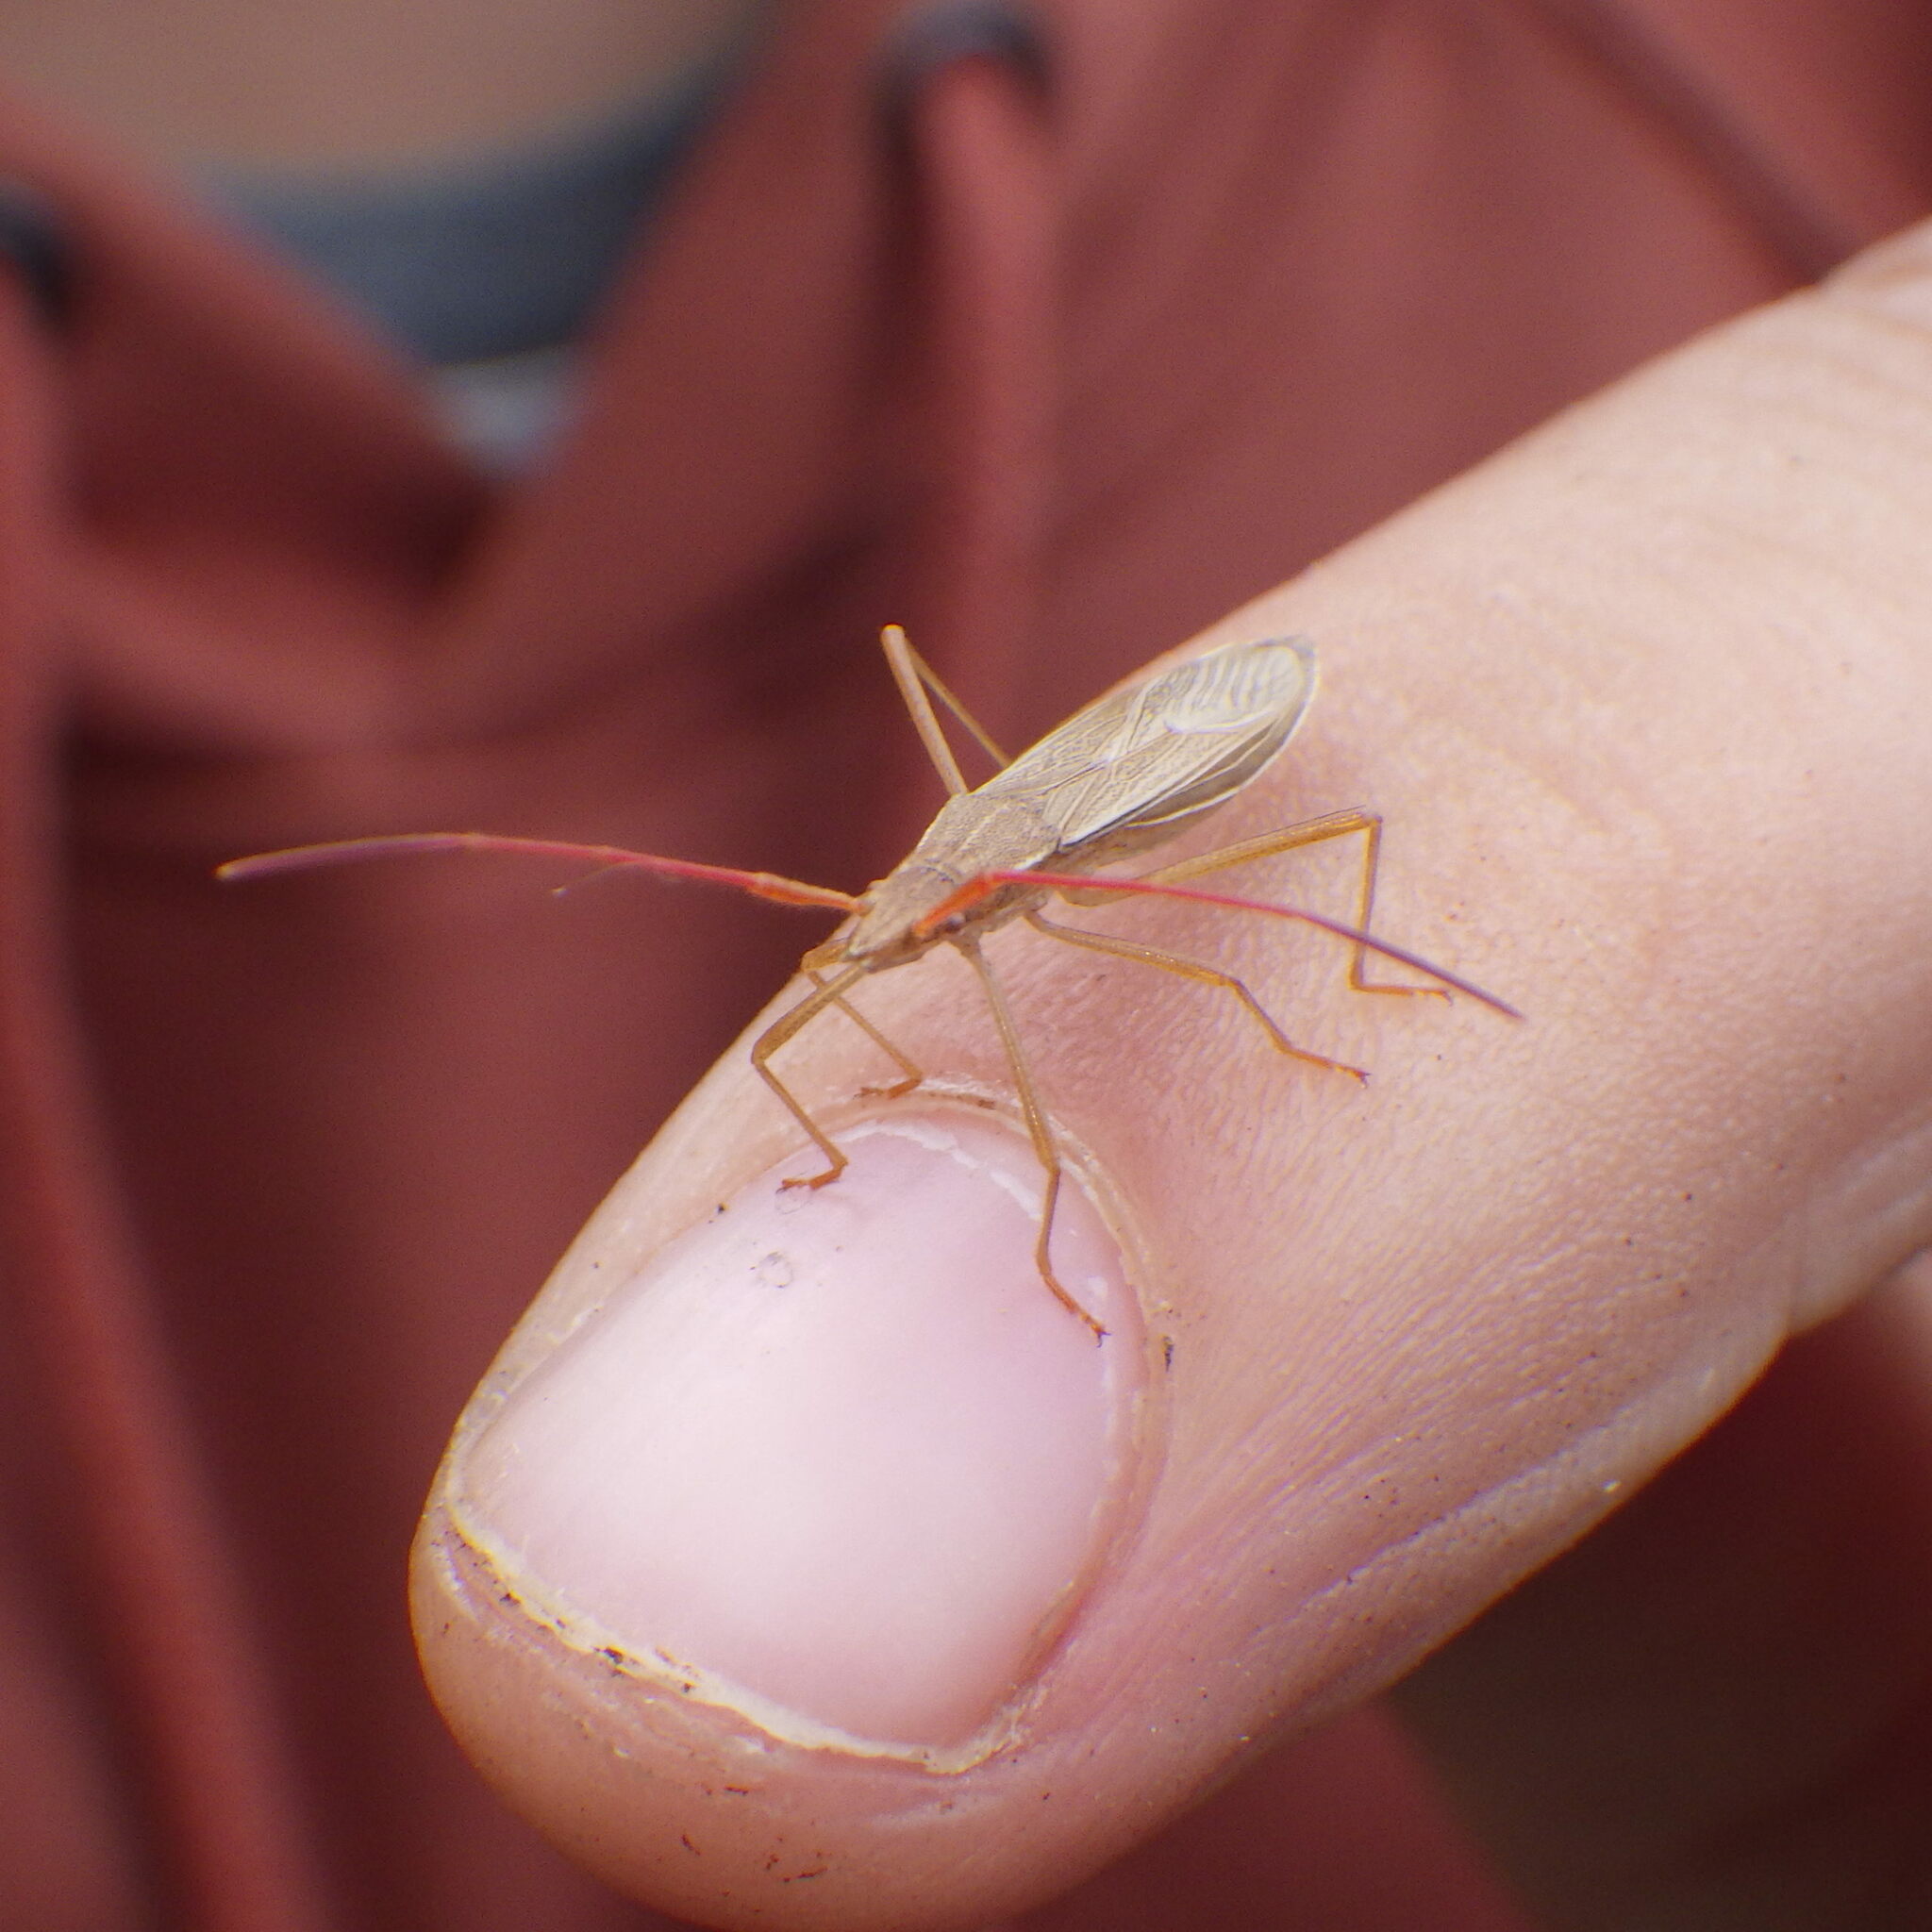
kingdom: Animalia
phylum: Arthropoda
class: Insecta
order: Hemiptera
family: Alydidae
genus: Protenor
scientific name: Protenor belfragei
